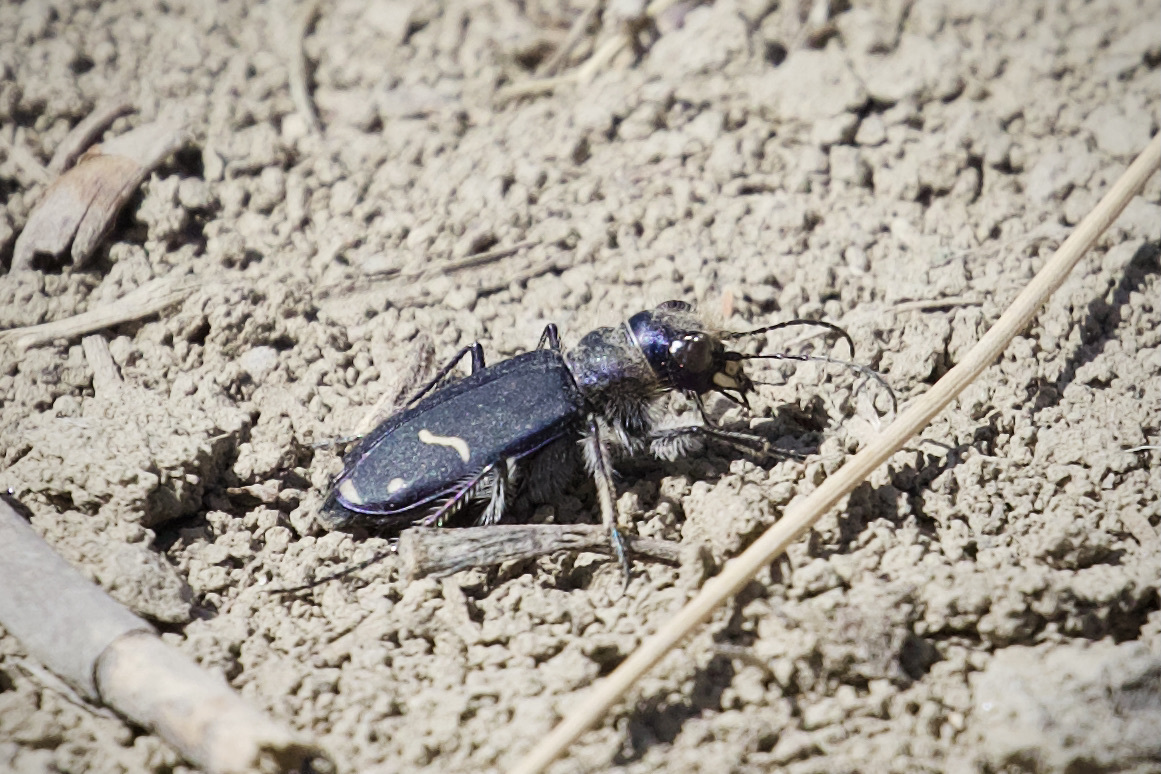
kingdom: Animalia
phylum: Arthropoda
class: Insecta
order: Coleoptera
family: Carabidae
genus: Cicindela
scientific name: Cicindela purpurea
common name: Cow path tiger beetle
